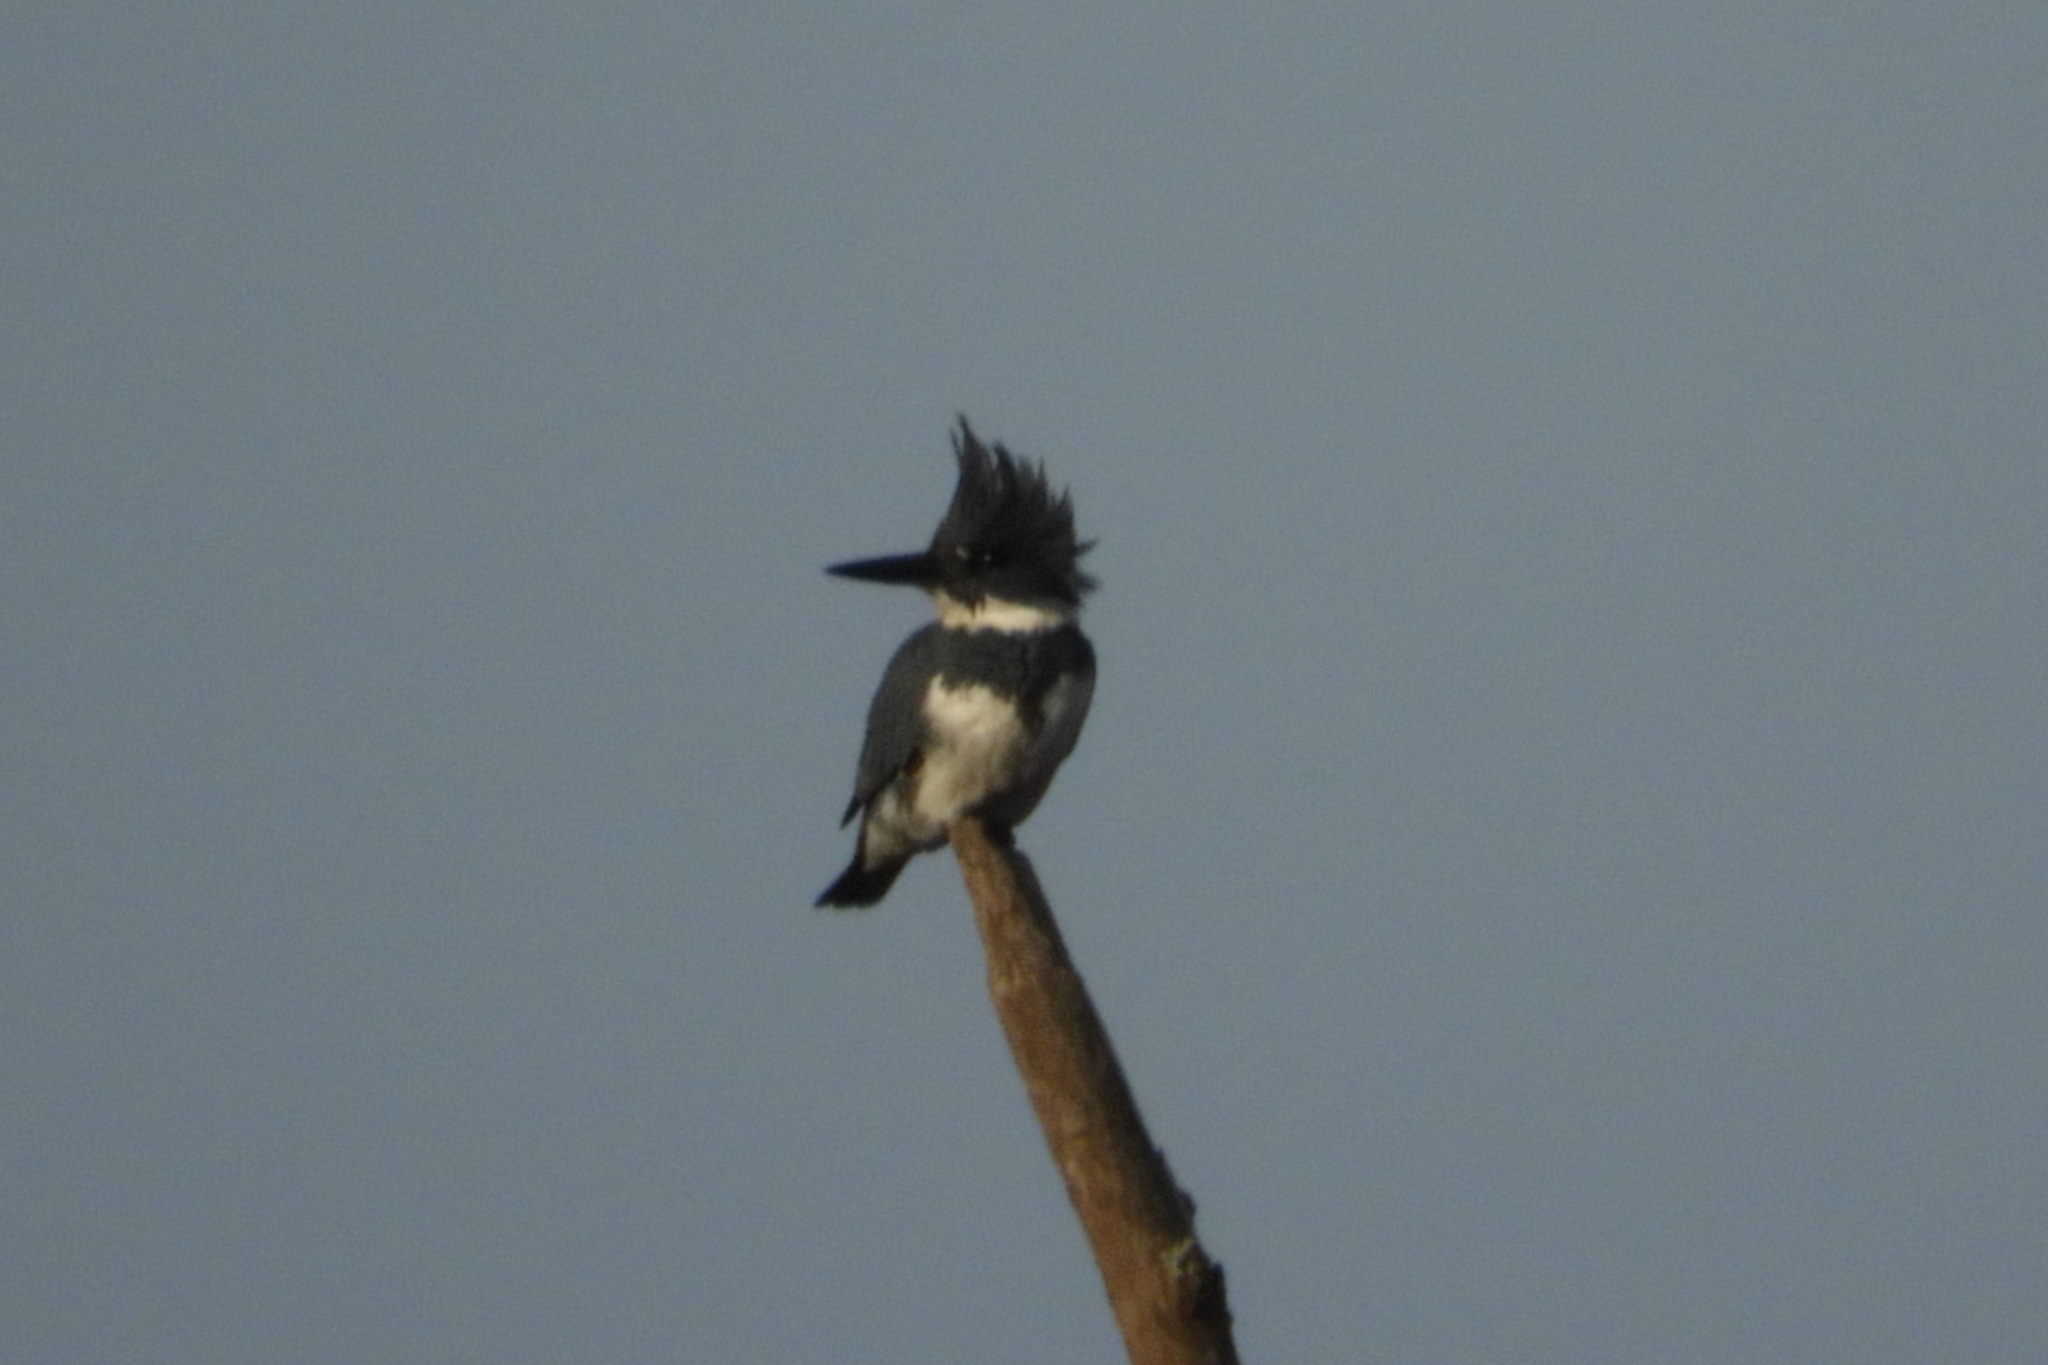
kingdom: Animalia
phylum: Chordata
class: Aves
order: Coraciiformes
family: Alcedinidae
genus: Megaceryle
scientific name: Megaceryle alcyon
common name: Belted kingfisher
